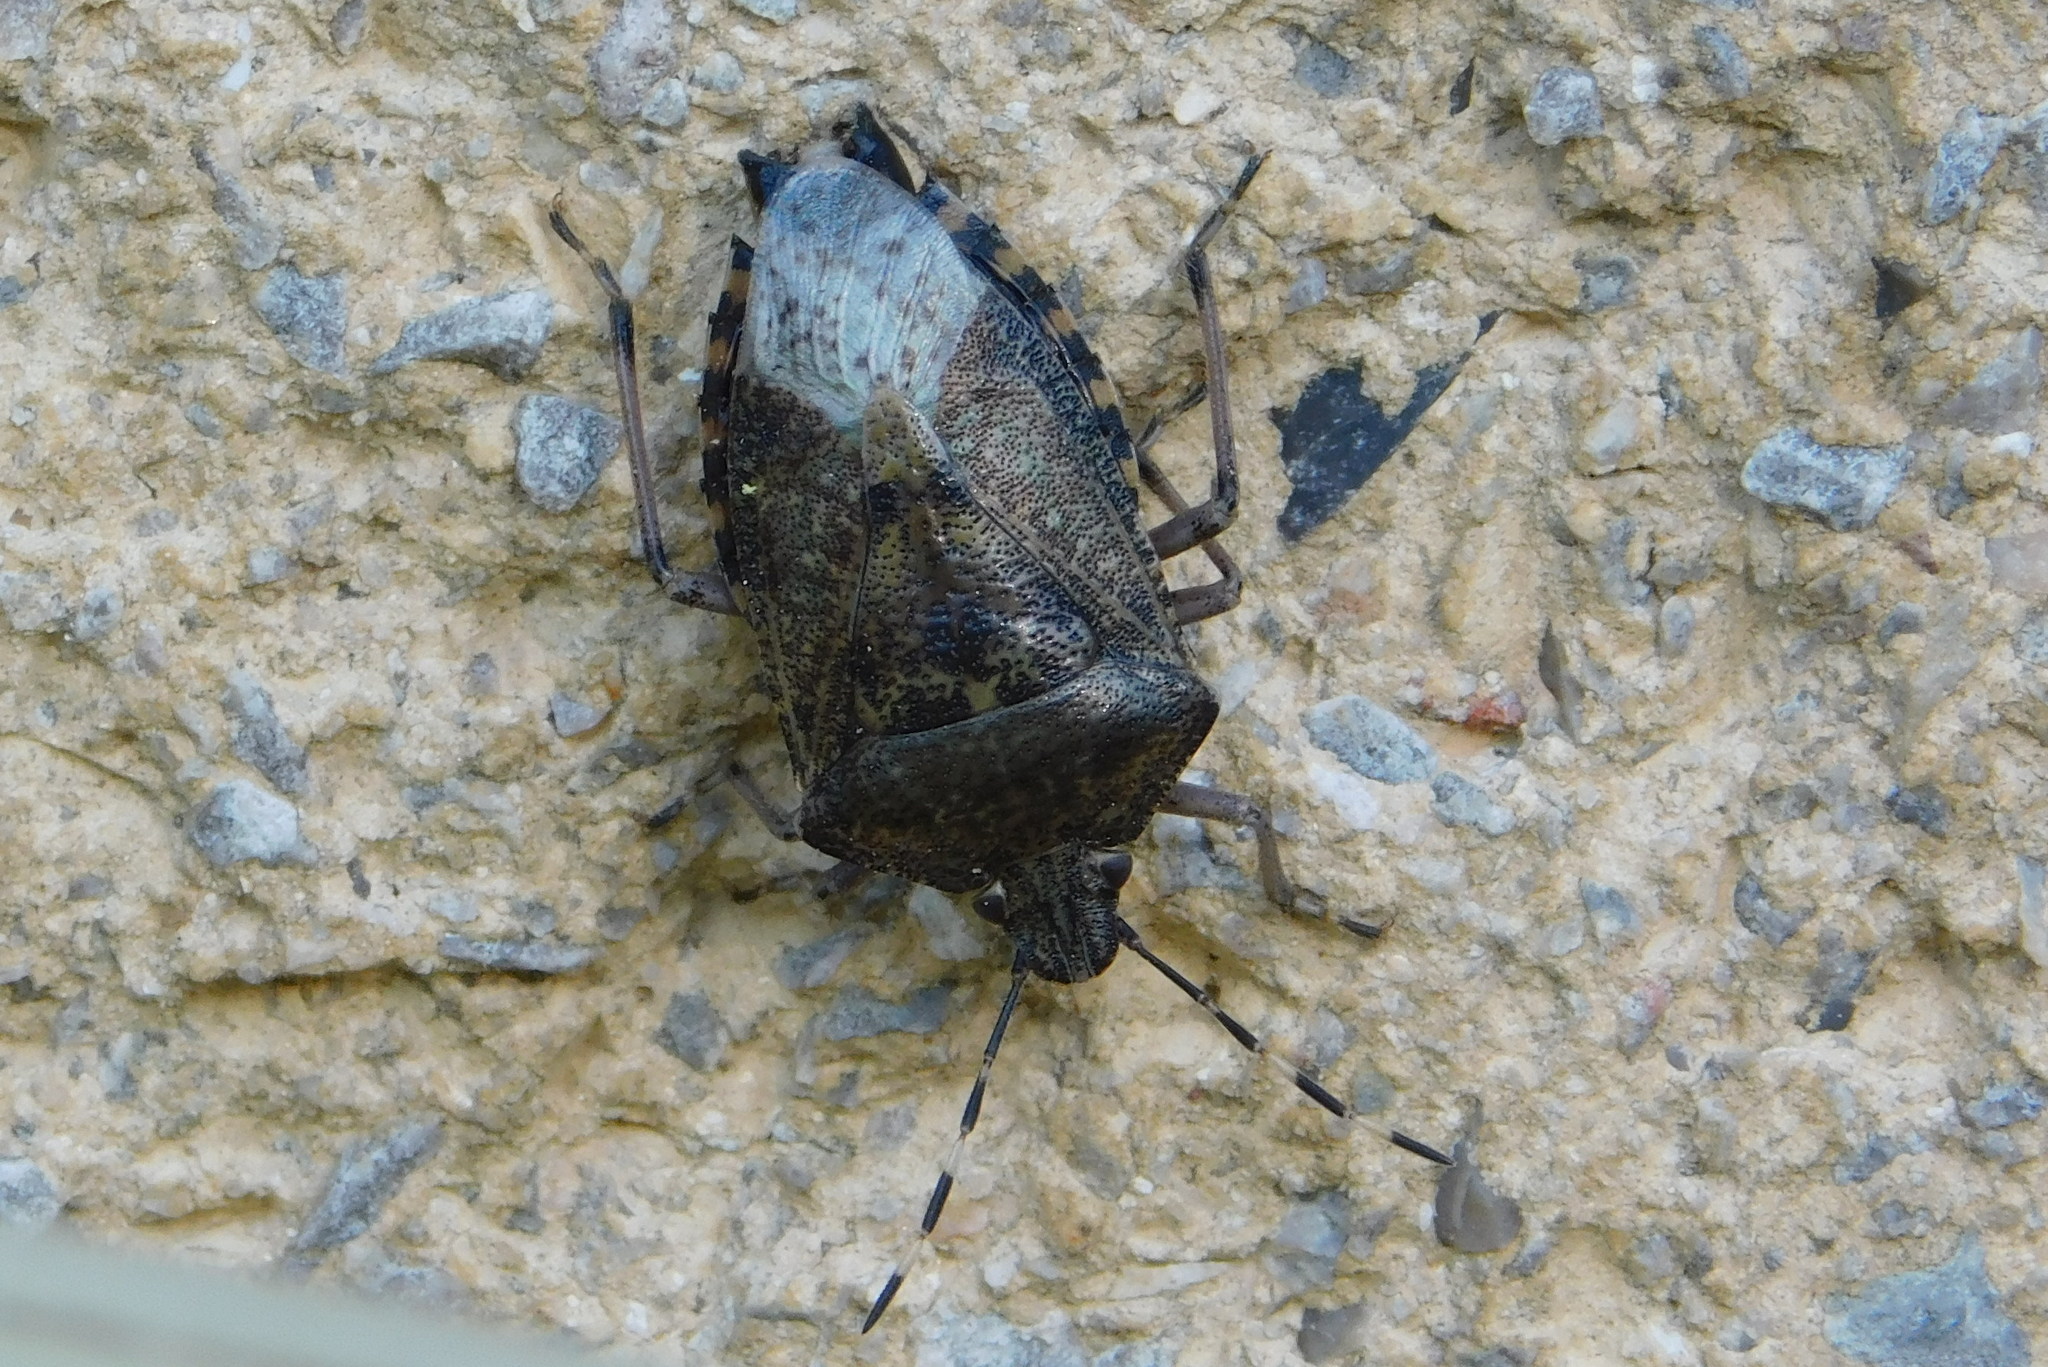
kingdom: Animalia
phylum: Arthropoda
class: Insecta
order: Hemiptera
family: Pentatomidae
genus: Rhaphigaster
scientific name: Rhaphigaster nebulosa
